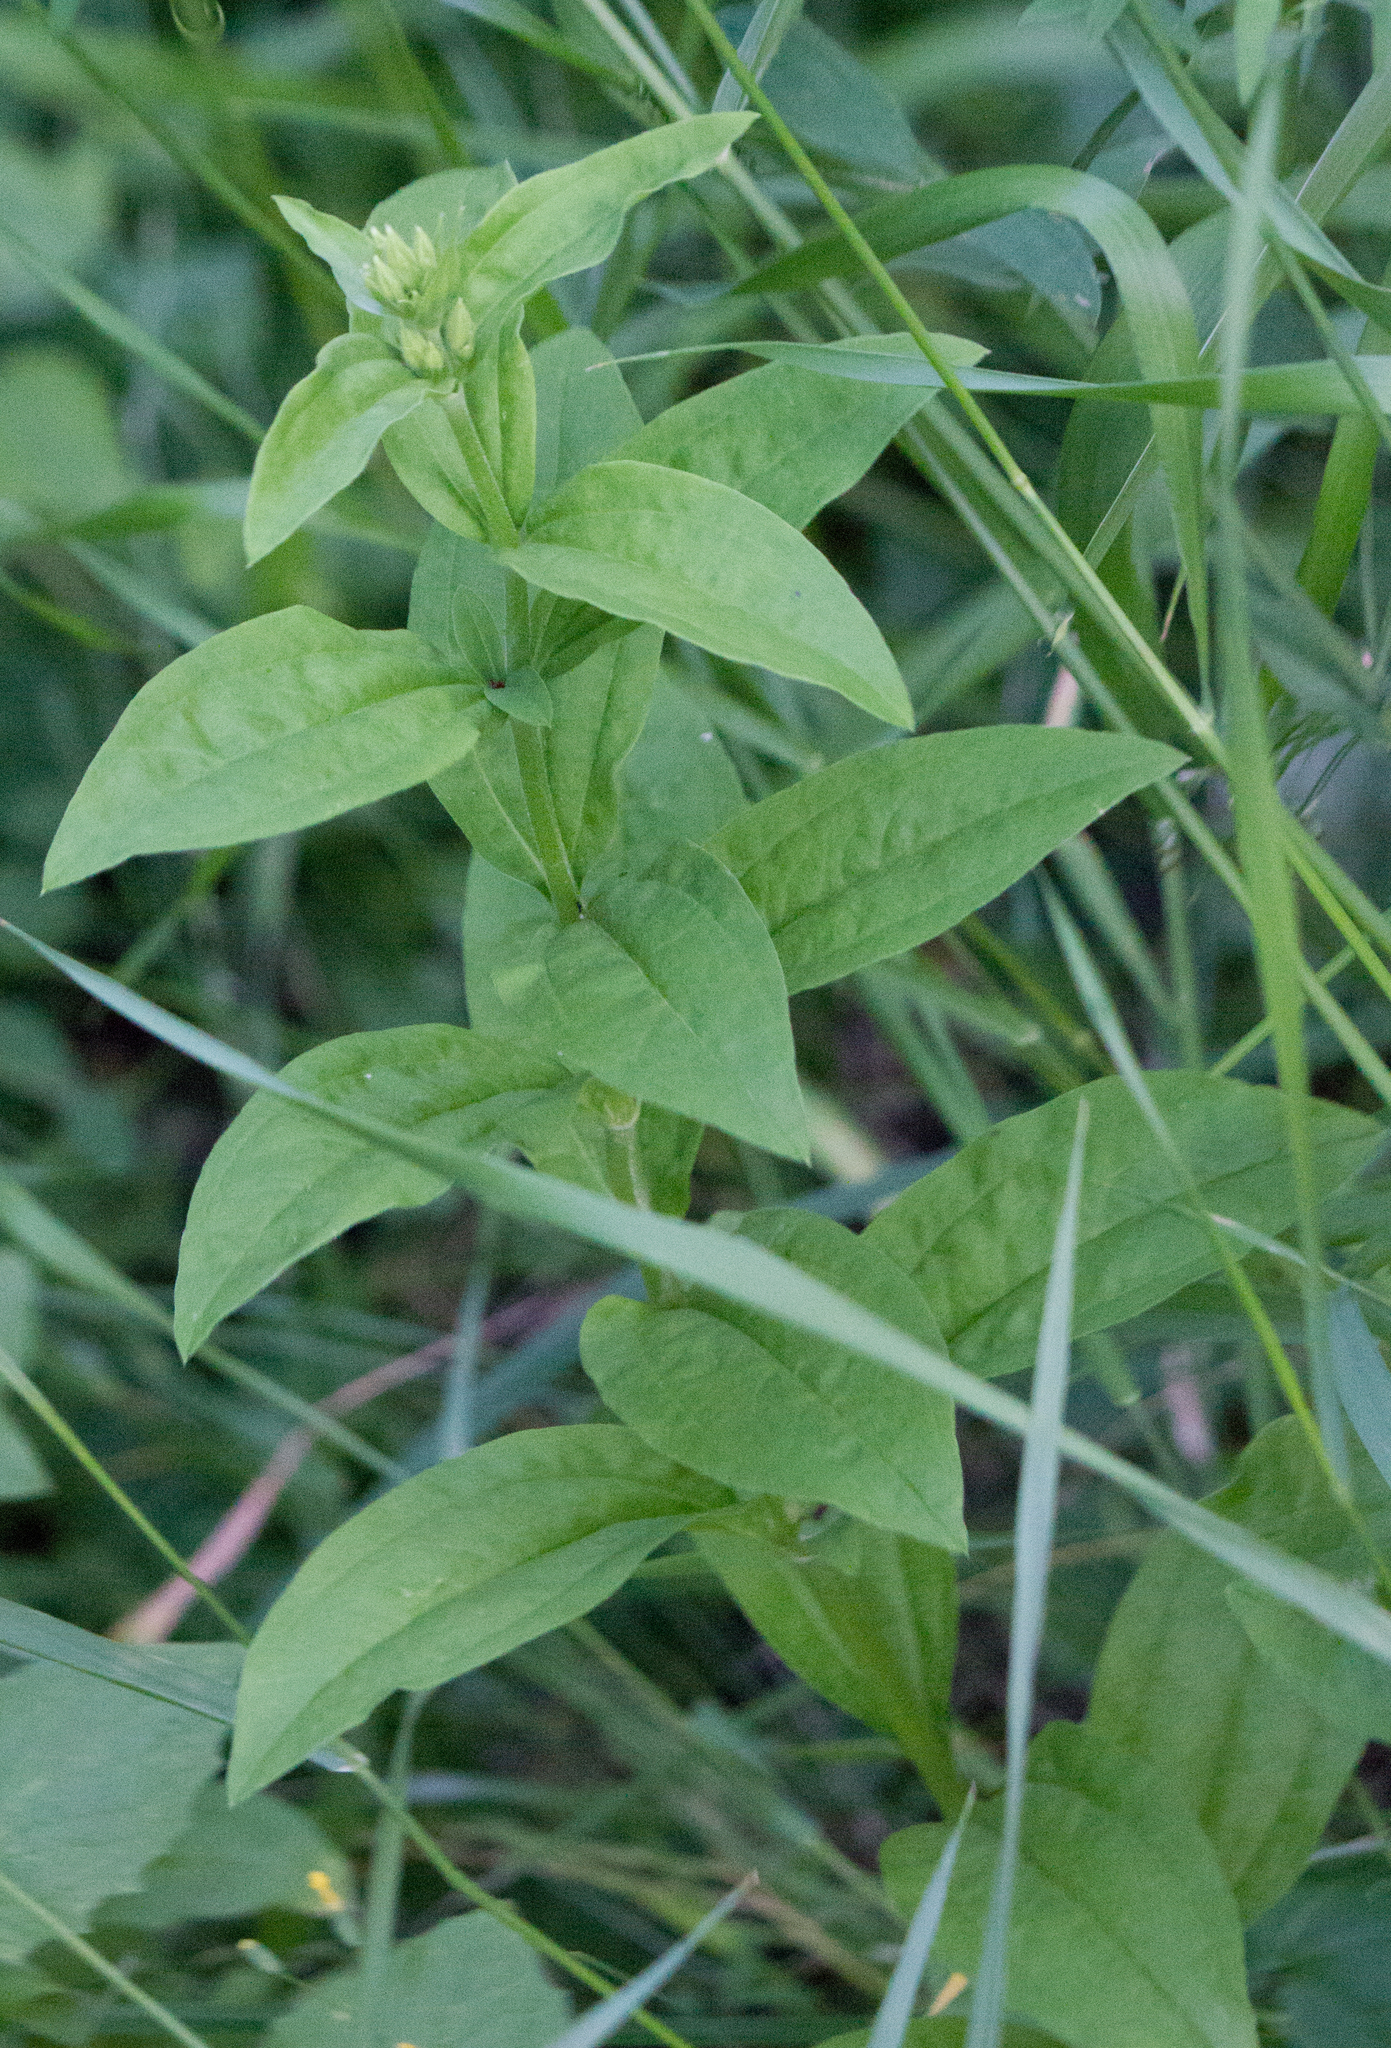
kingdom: Plantae
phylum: Tracheophyta
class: Magnoliopsida
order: Caryophyllales
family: Caryophyllaceae
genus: Saponaria
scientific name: Saponaria officinalis
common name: Soapwort
